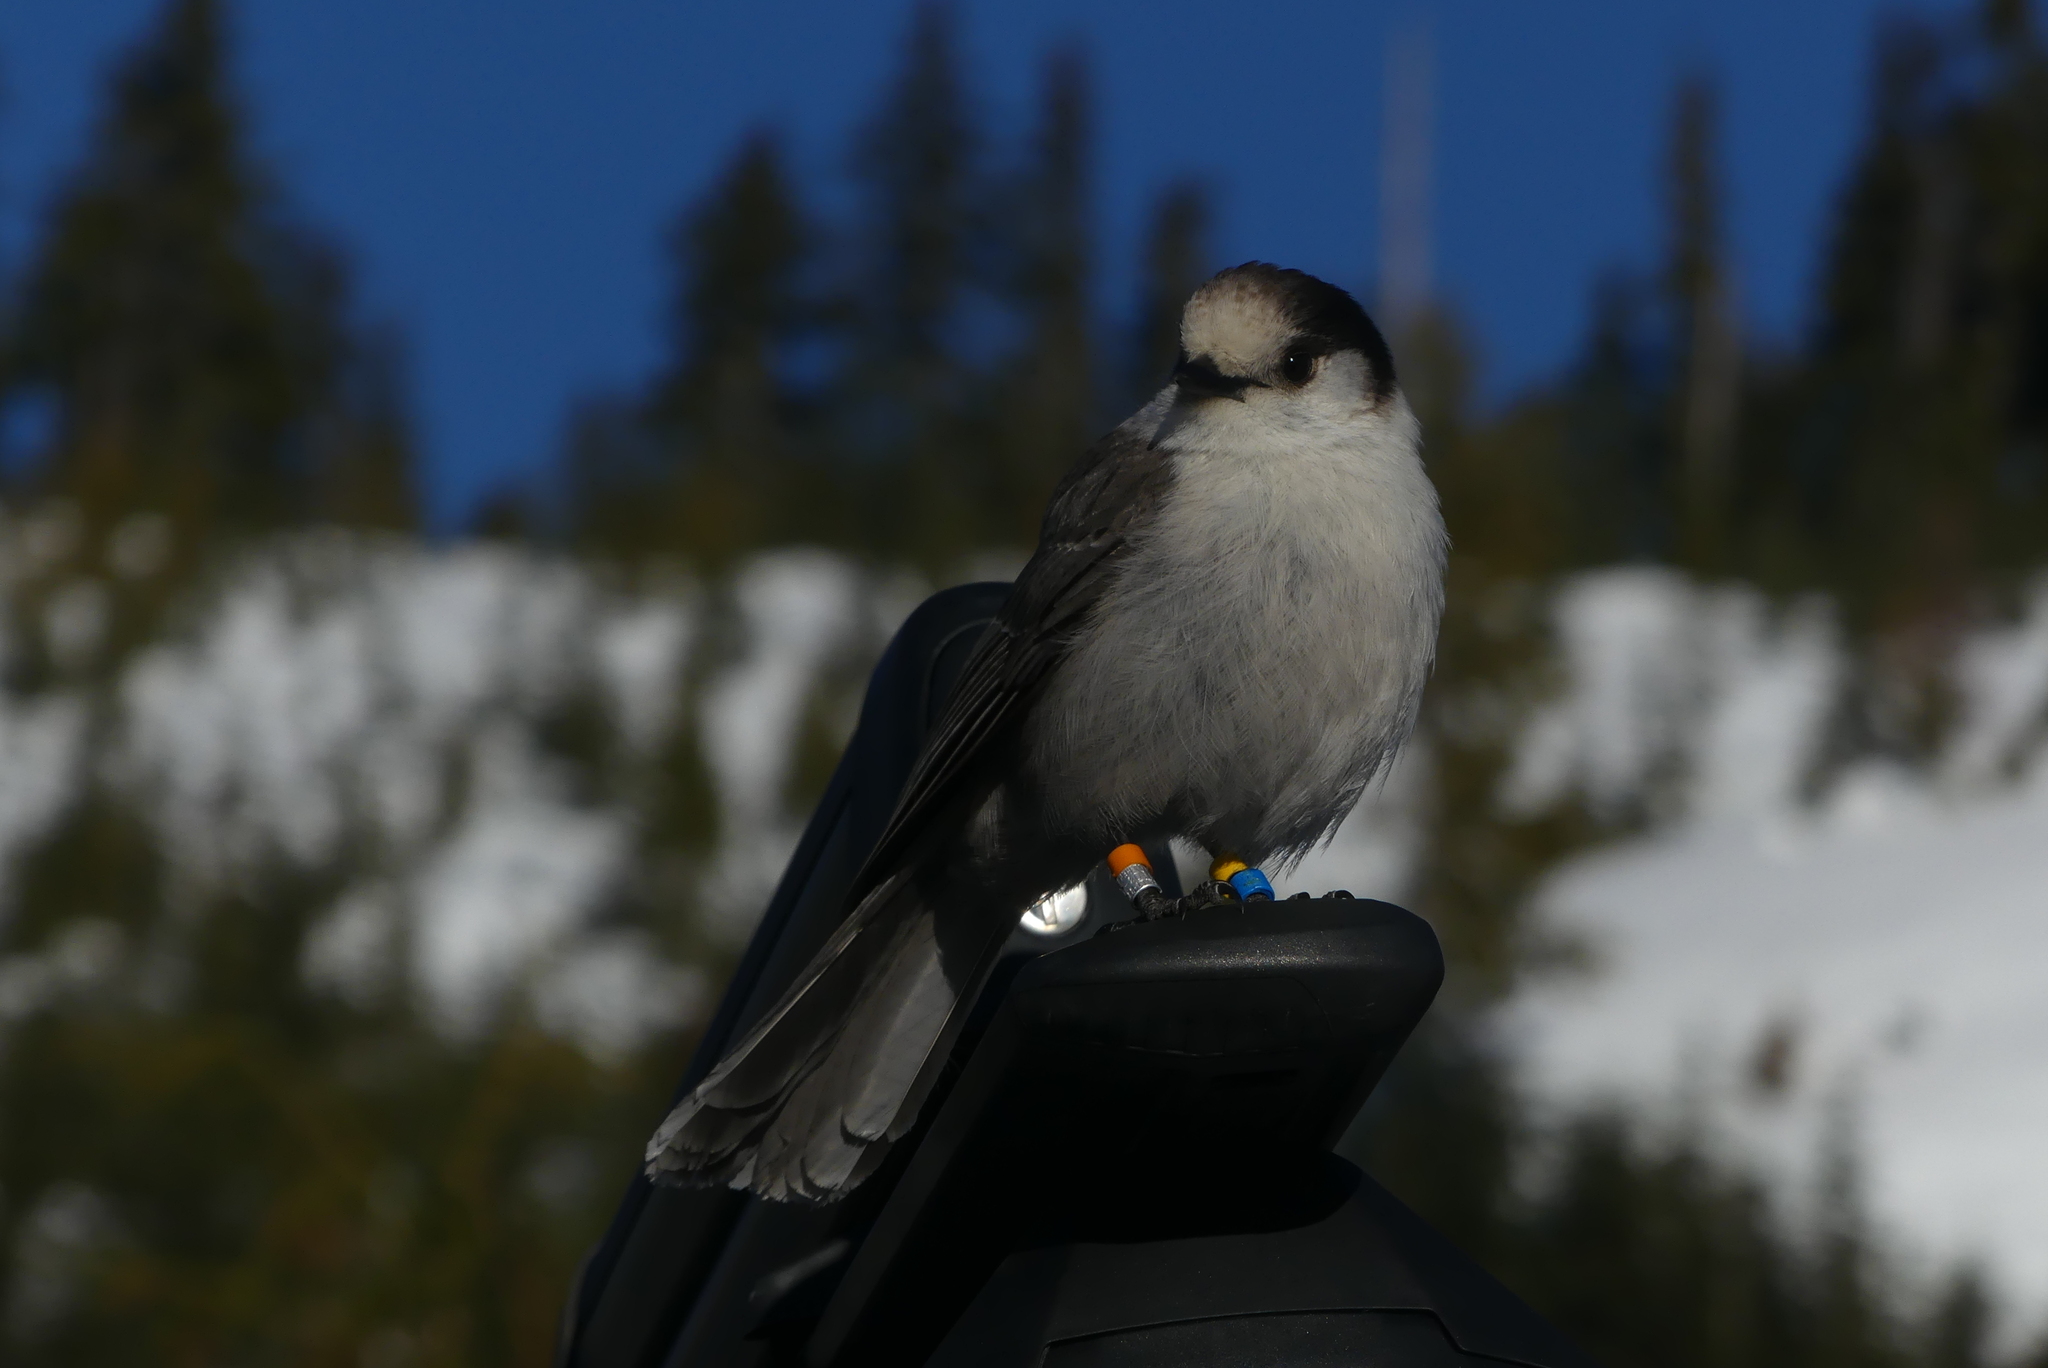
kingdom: Animalia
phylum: Chordata
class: Aves
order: Passeriformes
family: Corvidae
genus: Perisoreus
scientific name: Perisoreus canadensis
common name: Gray jay
